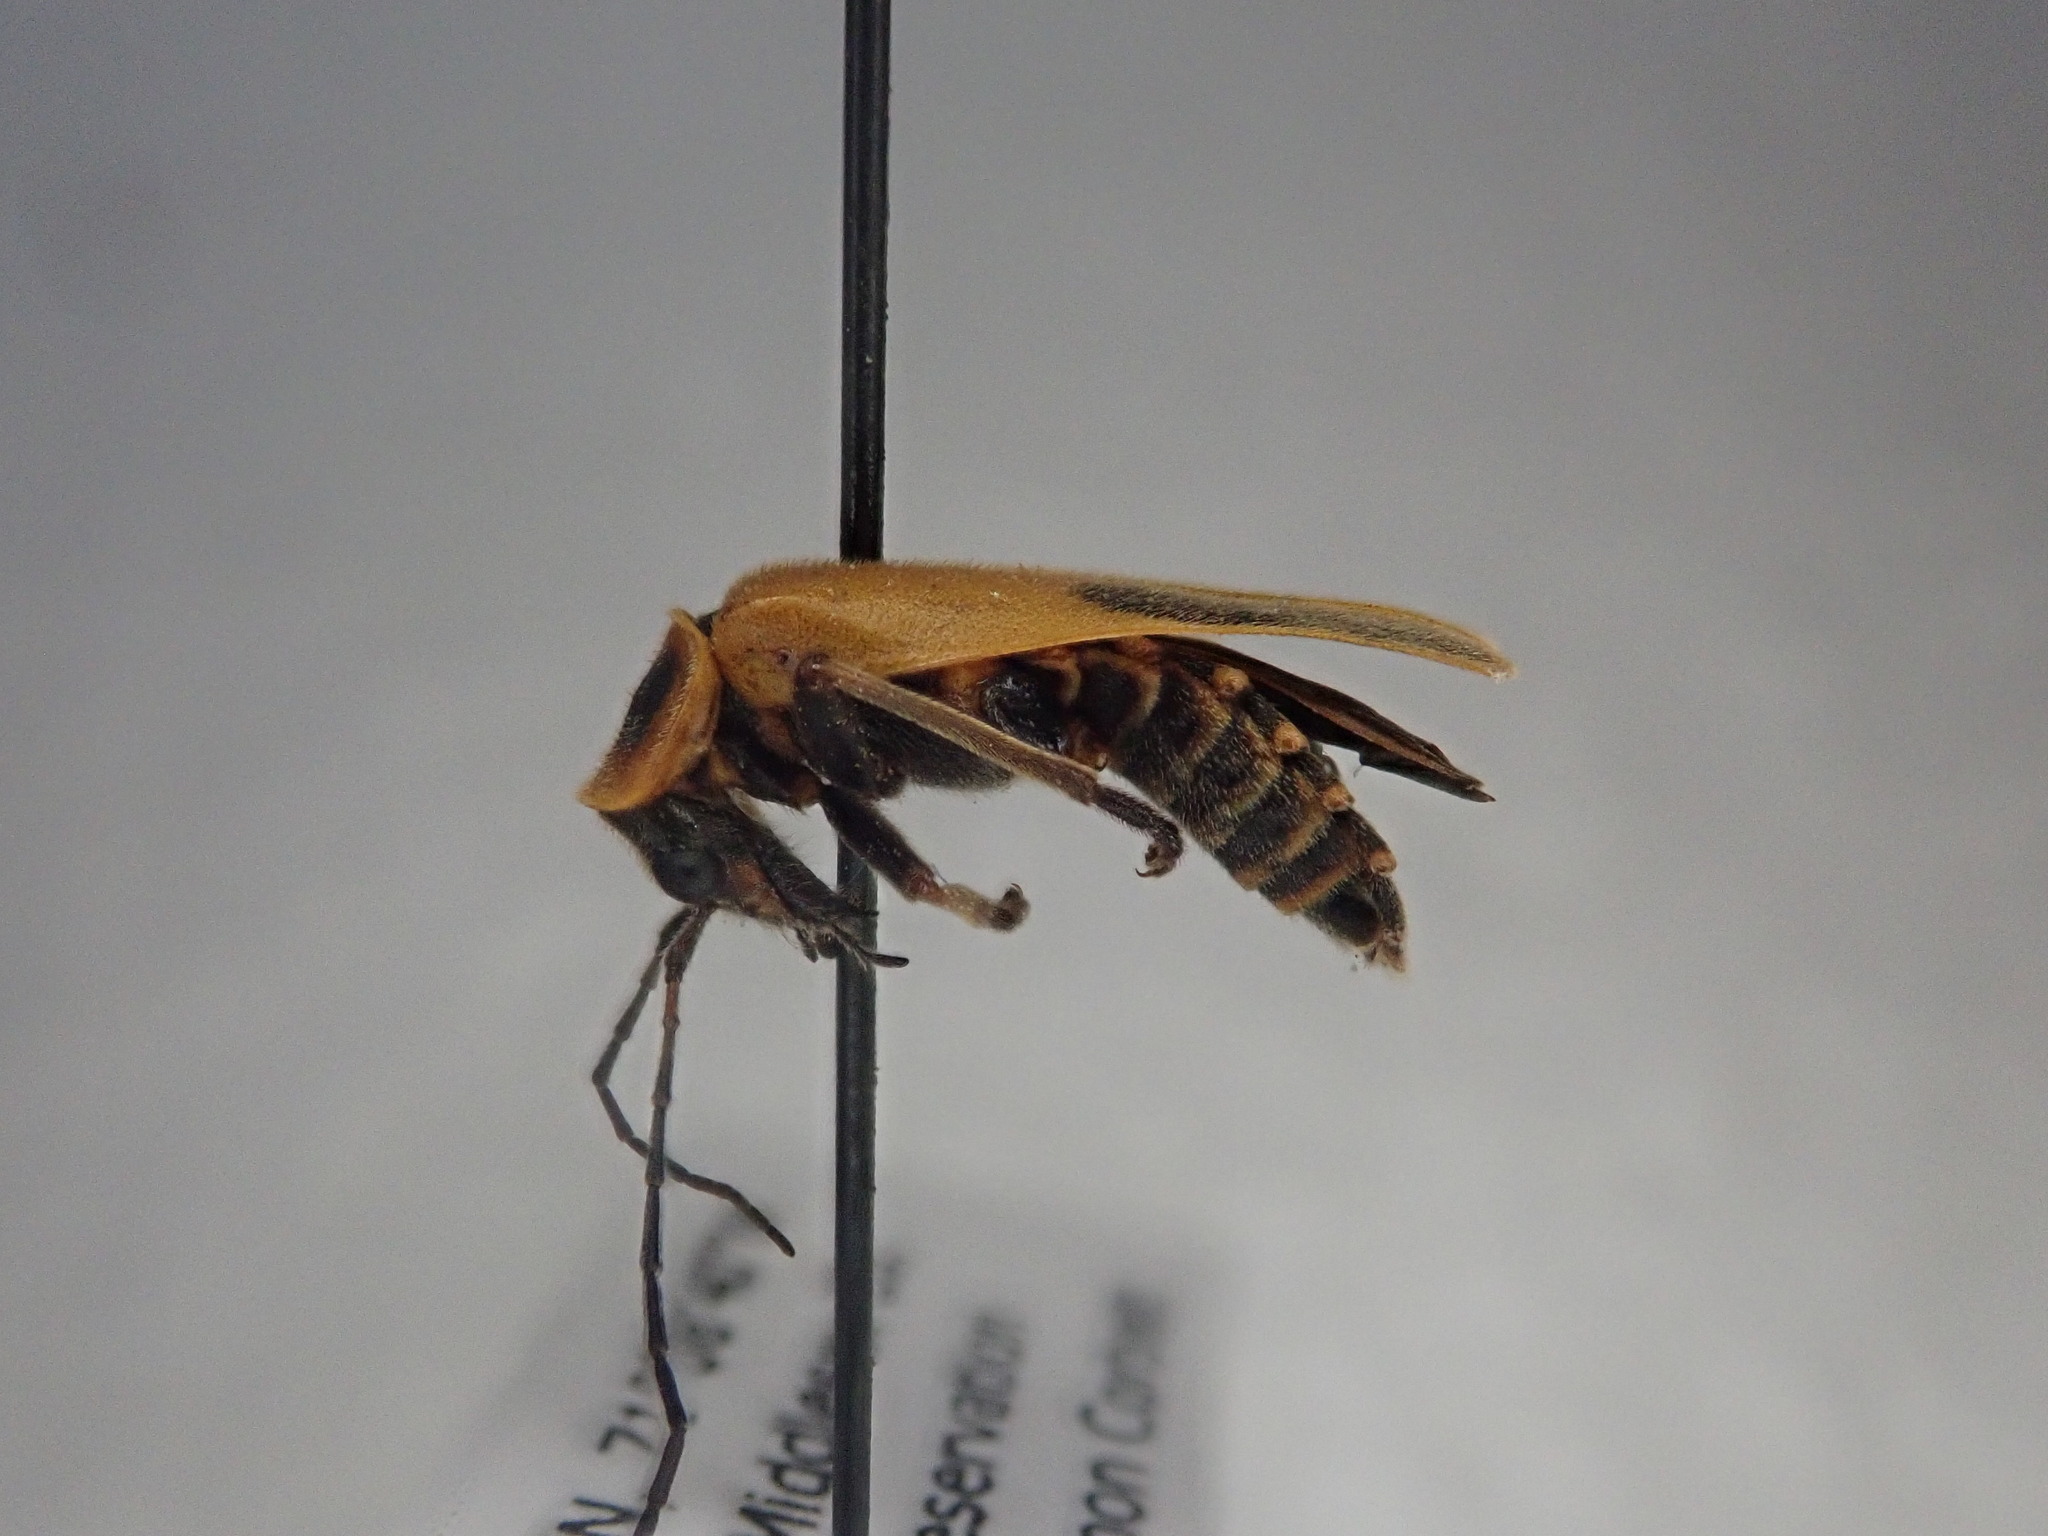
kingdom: Animalia
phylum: Arthropoda
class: Insecta
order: Coleoptera
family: Cantharidae
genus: Chauliognathus
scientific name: Chauliognathus pensylvanicus
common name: Goldenrod soldier beetle
